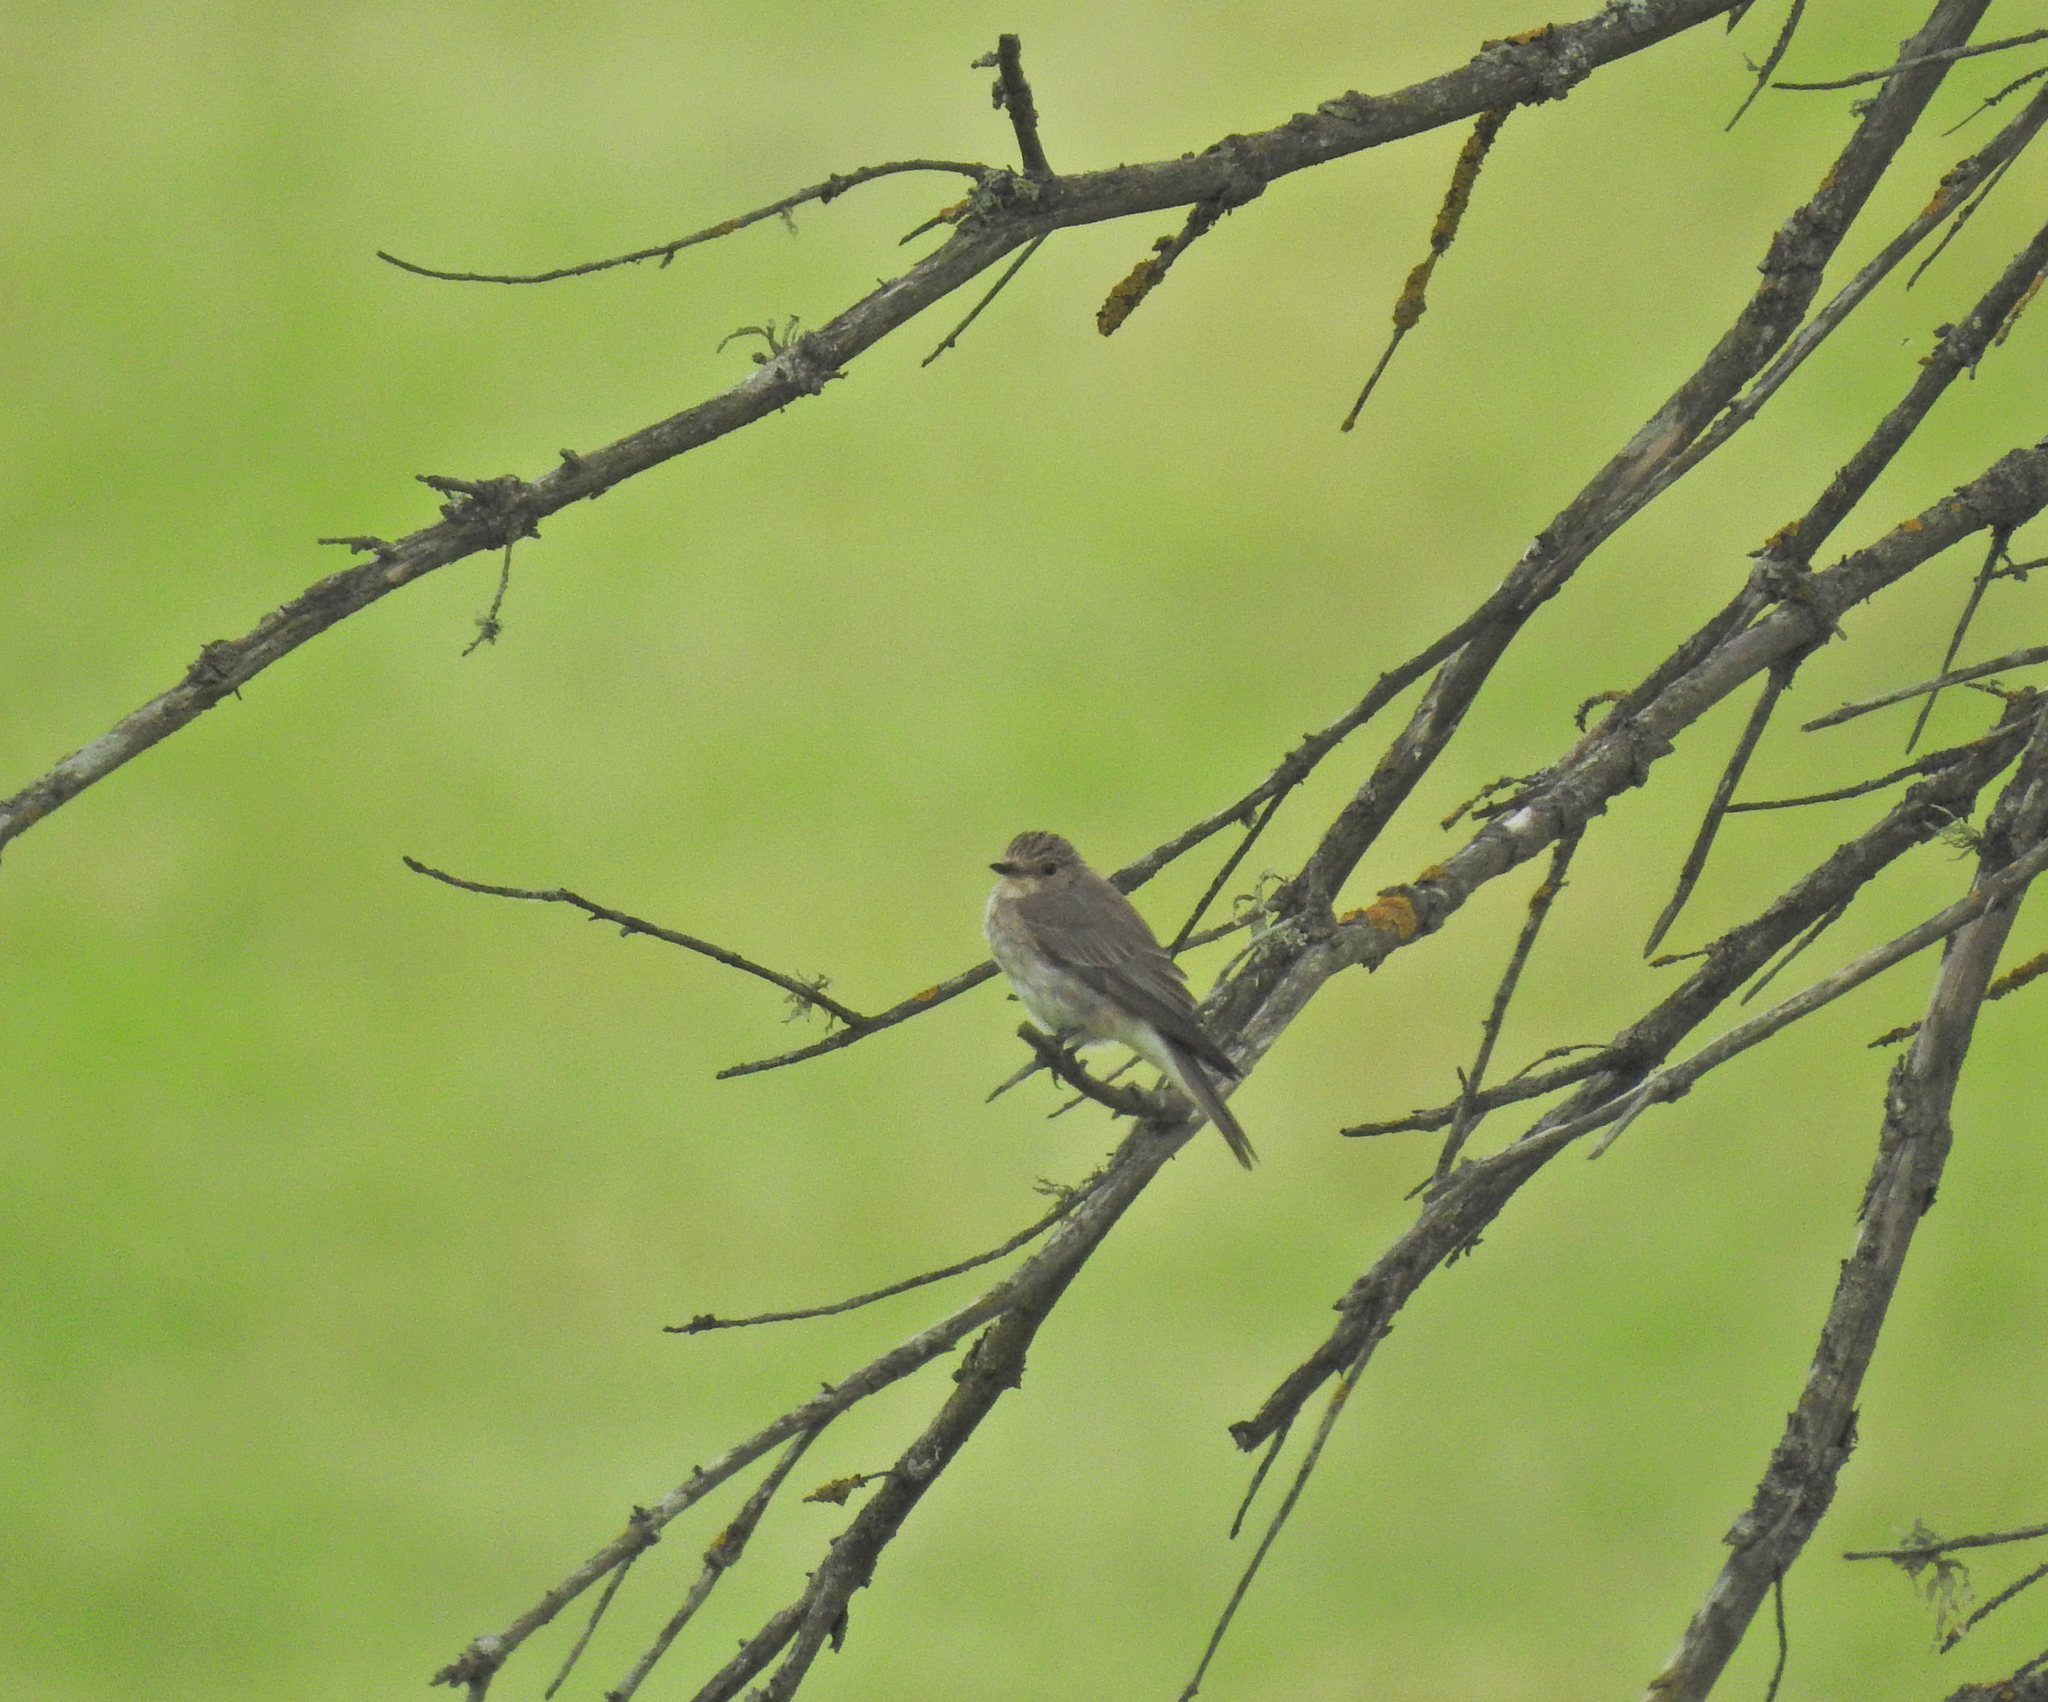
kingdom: Animalia
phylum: Chordata
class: Aves
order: Passeriformes
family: Muscicapidae
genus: Muscicapa
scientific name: Muscicapa striata
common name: Spotted flycatcher
